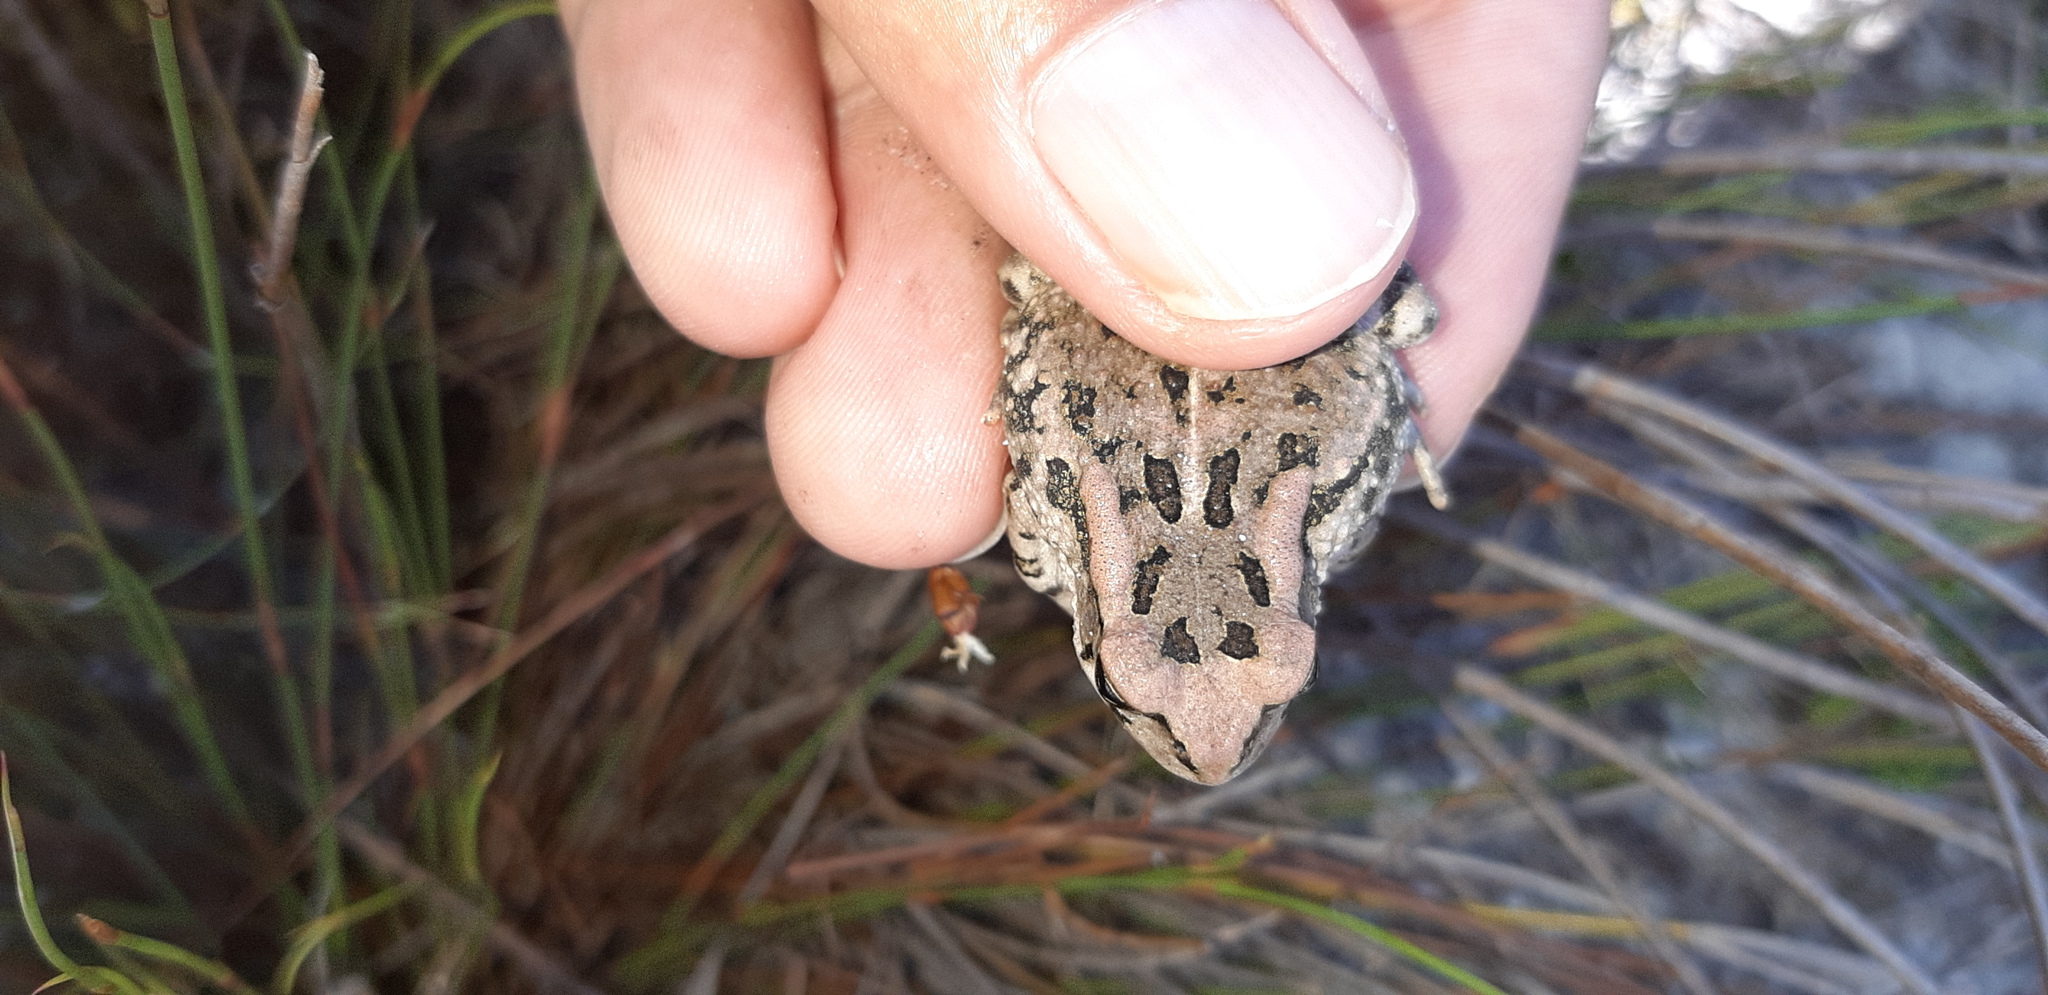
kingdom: Animalia
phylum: Chordata
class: Amphibia
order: Anura
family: Bufonidae
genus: Sclerophrys
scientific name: Sclerophrys capensis
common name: Ranger’s toad
